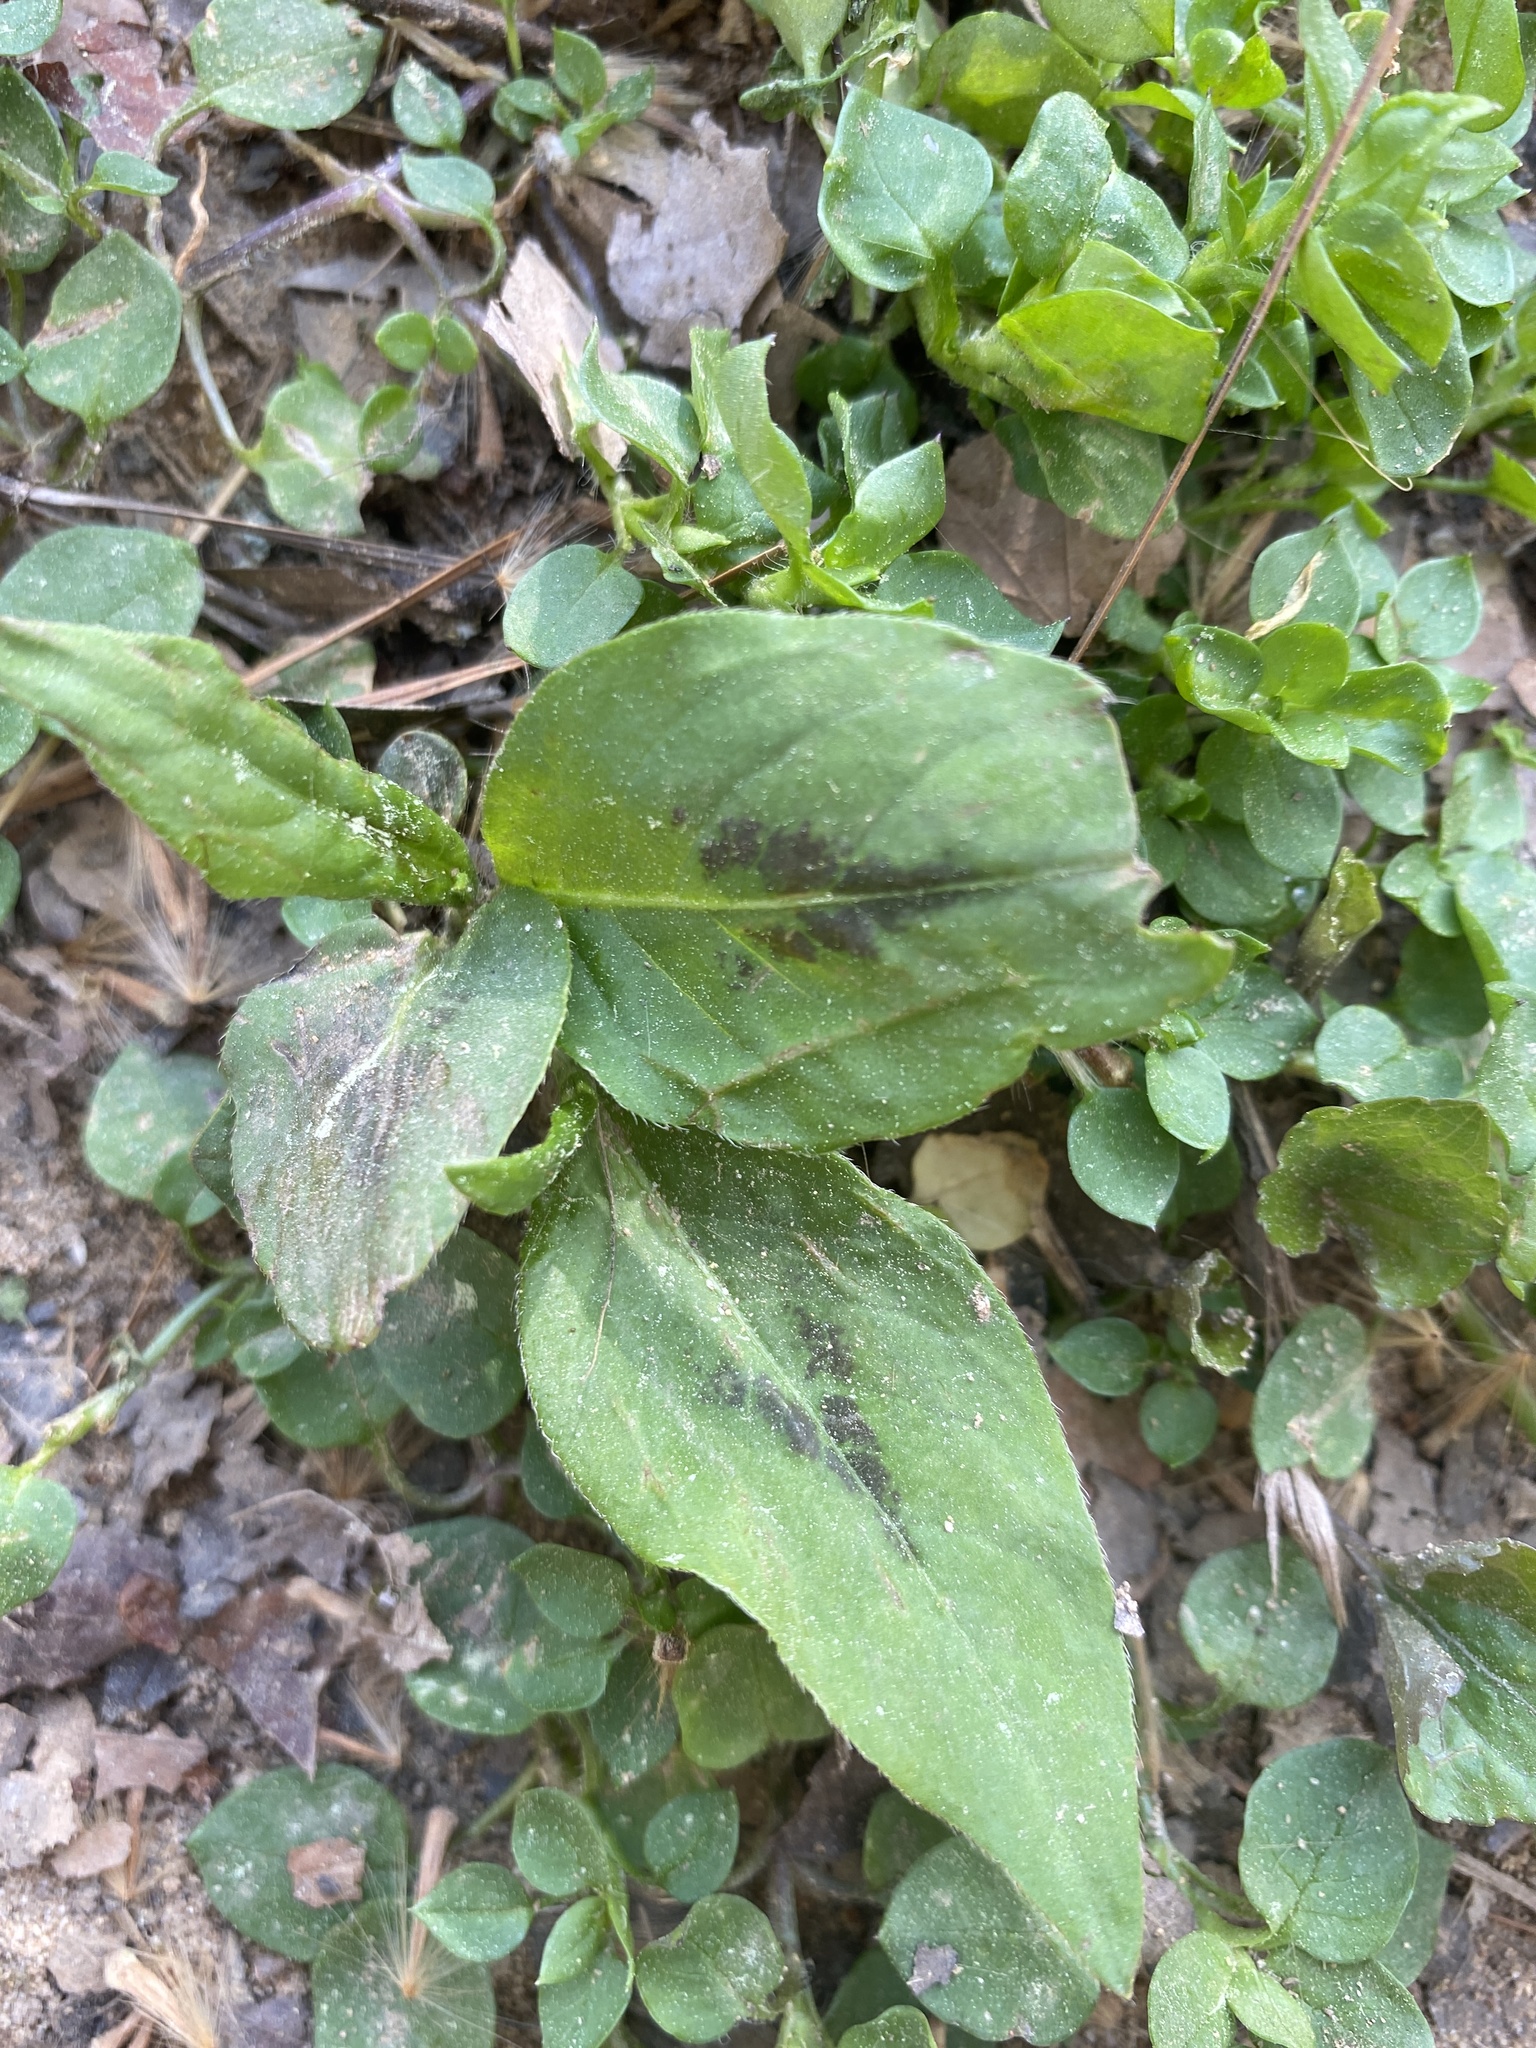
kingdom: Plantae
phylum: Tracheophyta
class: Magnoliopsida
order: Caryophyllales
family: Polygonaceae
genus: Persicaria
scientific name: Persicaria virginiana
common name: Jumpseed
